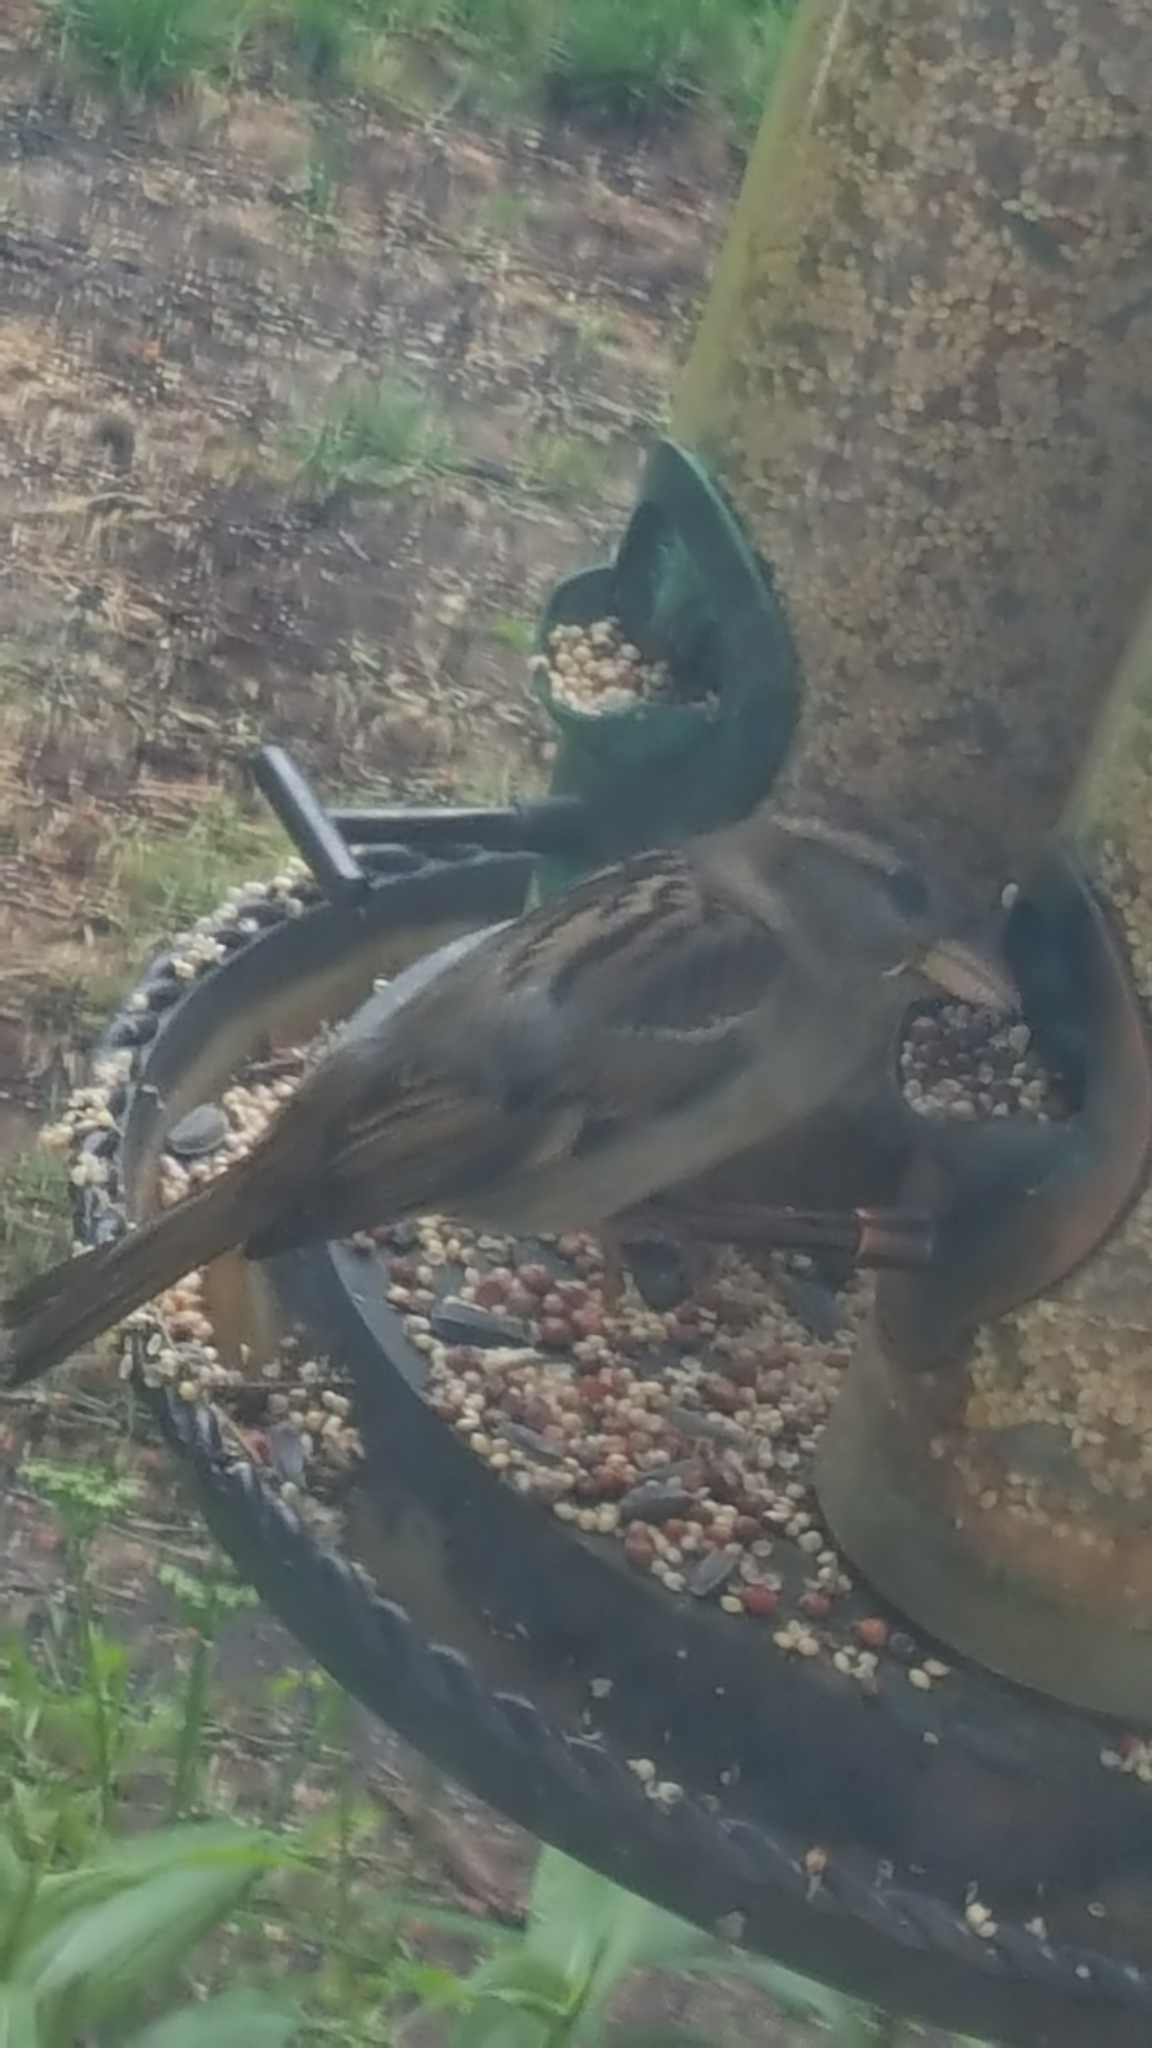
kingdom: Animalia
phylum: Chordata
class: Aves
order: Passeriformes
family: Passeridae
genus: Passer
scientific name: Passer domesticus
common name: House sparrow
